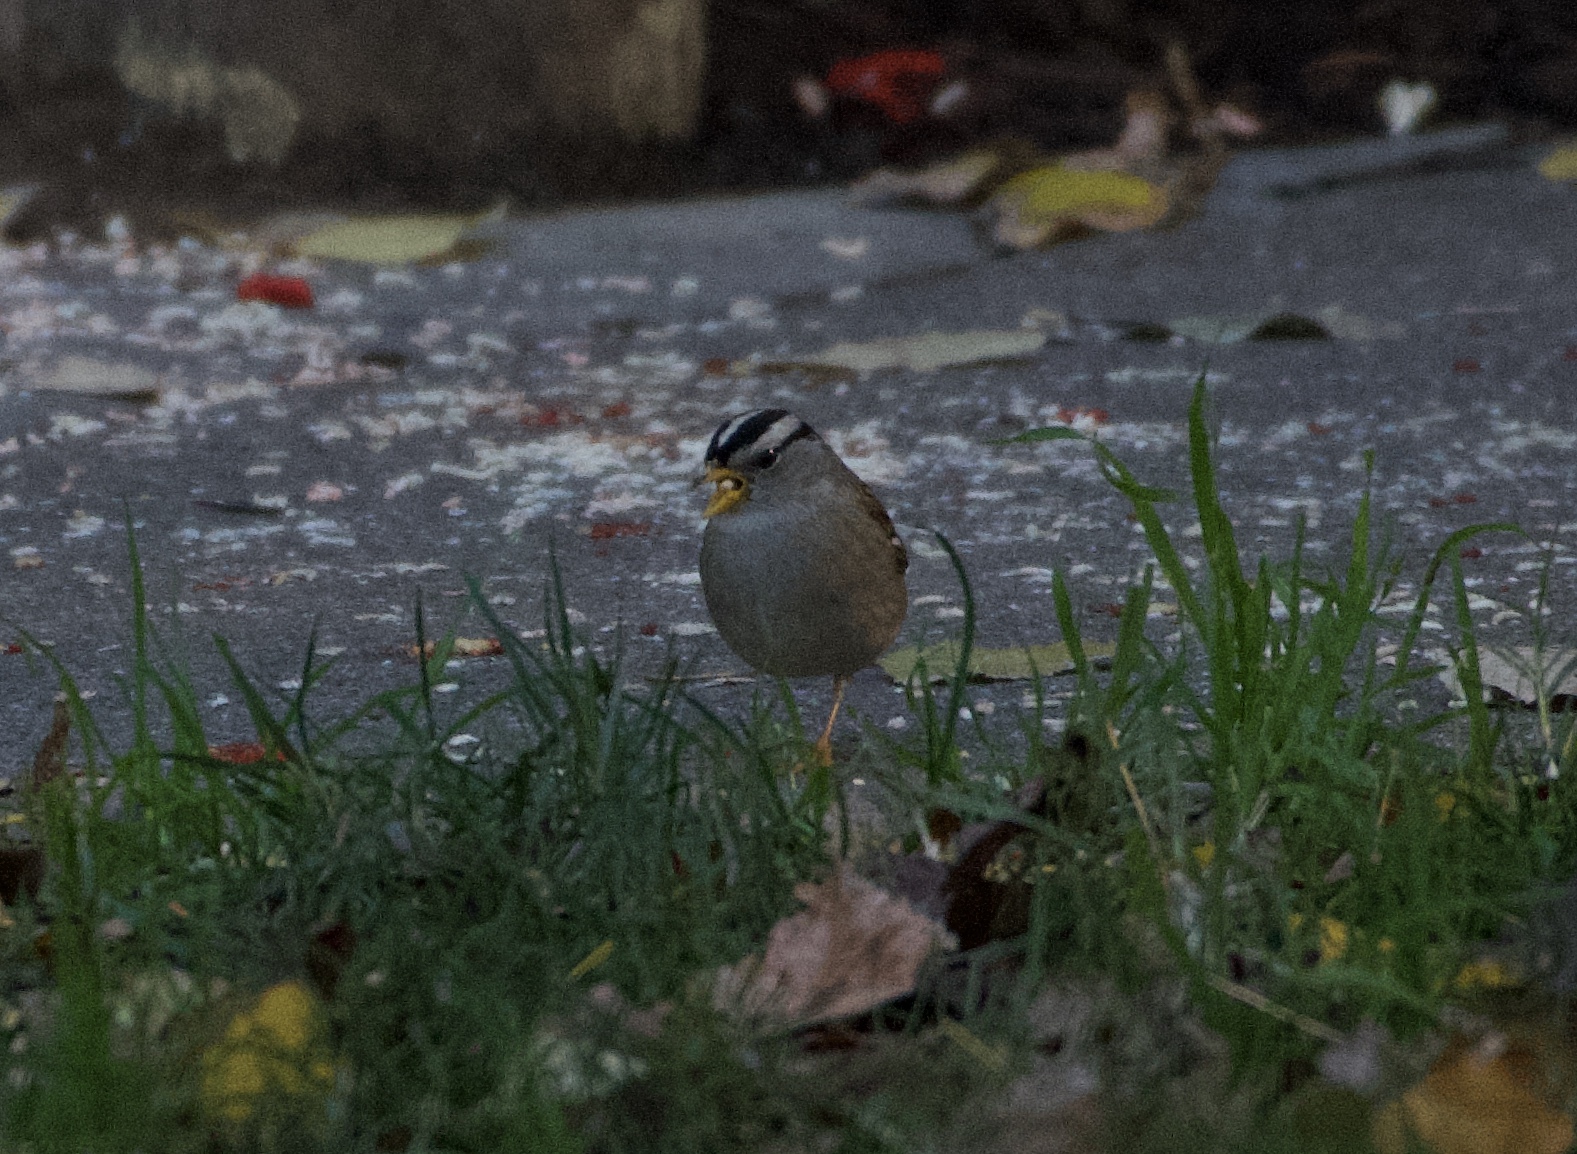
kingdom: Animalia
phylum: Chordata
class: Aves
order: Passeriformes
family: Passerellidae
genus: Zonotrichia
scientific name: Zonotrichia leucophrys
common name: White-crowned sparrow
